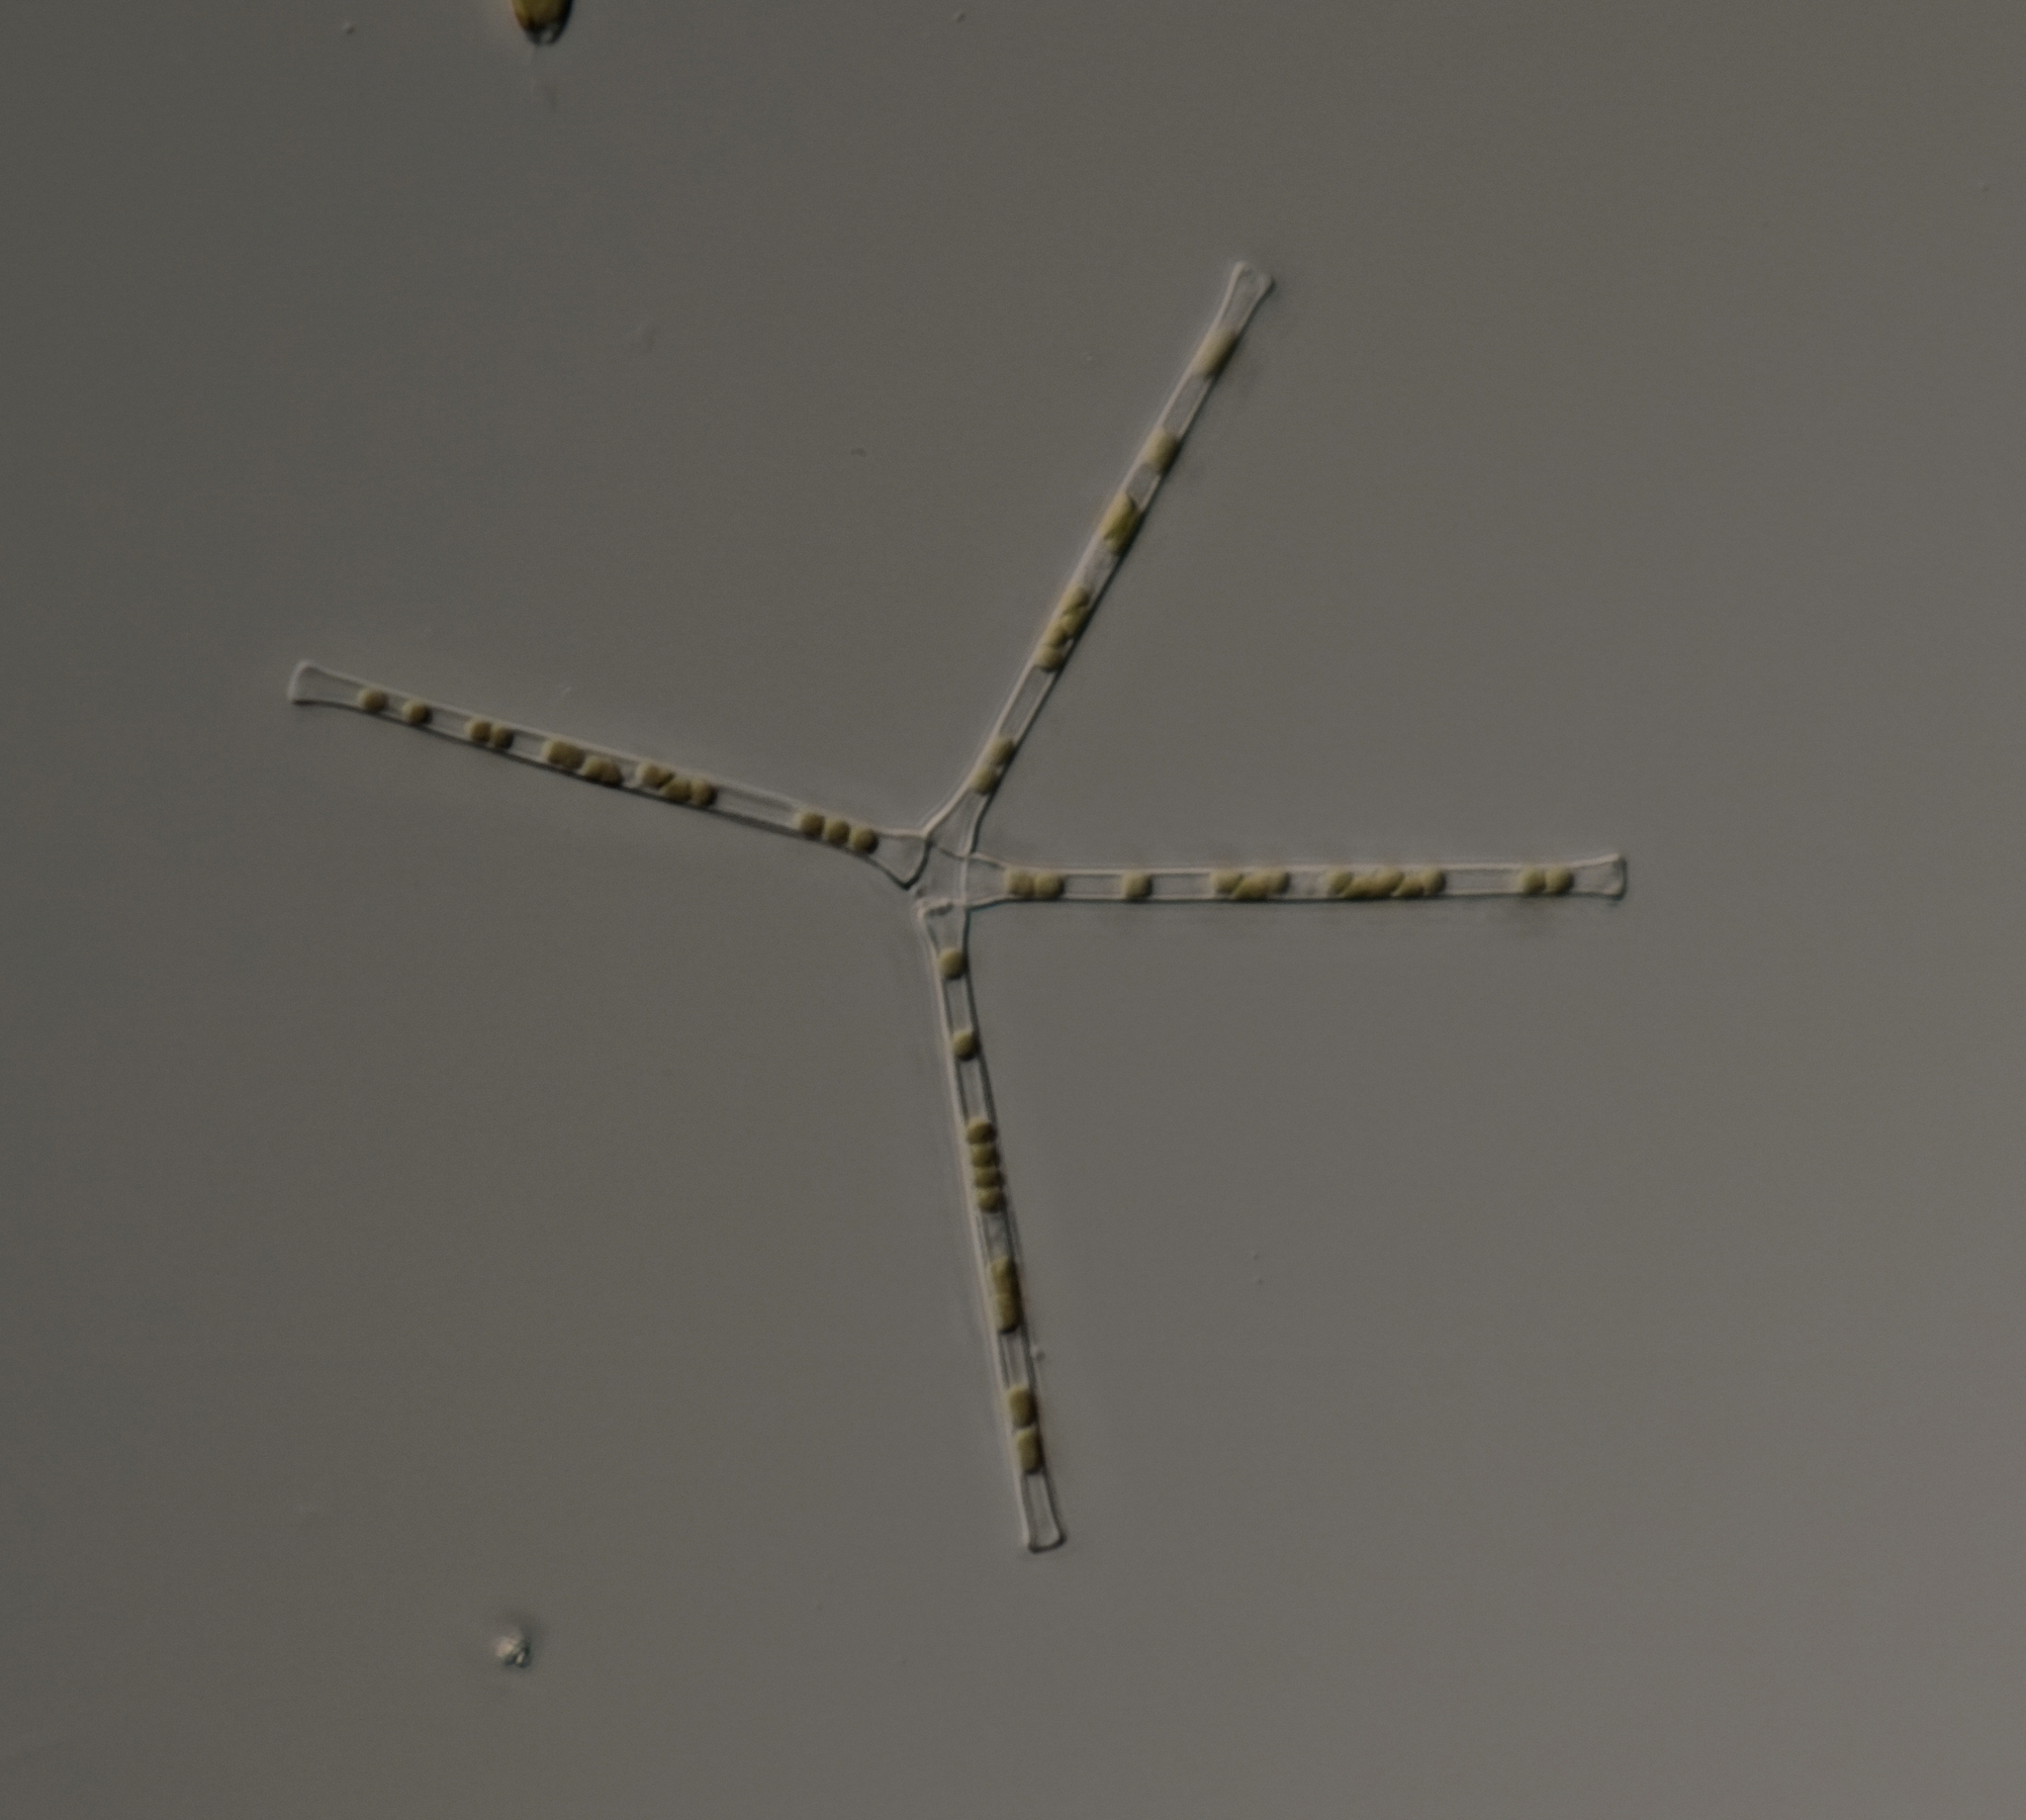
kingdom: Chromista
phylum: Ochrophyta
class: Bacillariophyceae
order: Fragilariales
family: Fragilariaceae
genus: Asterionella
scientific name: Asterionella formosa
